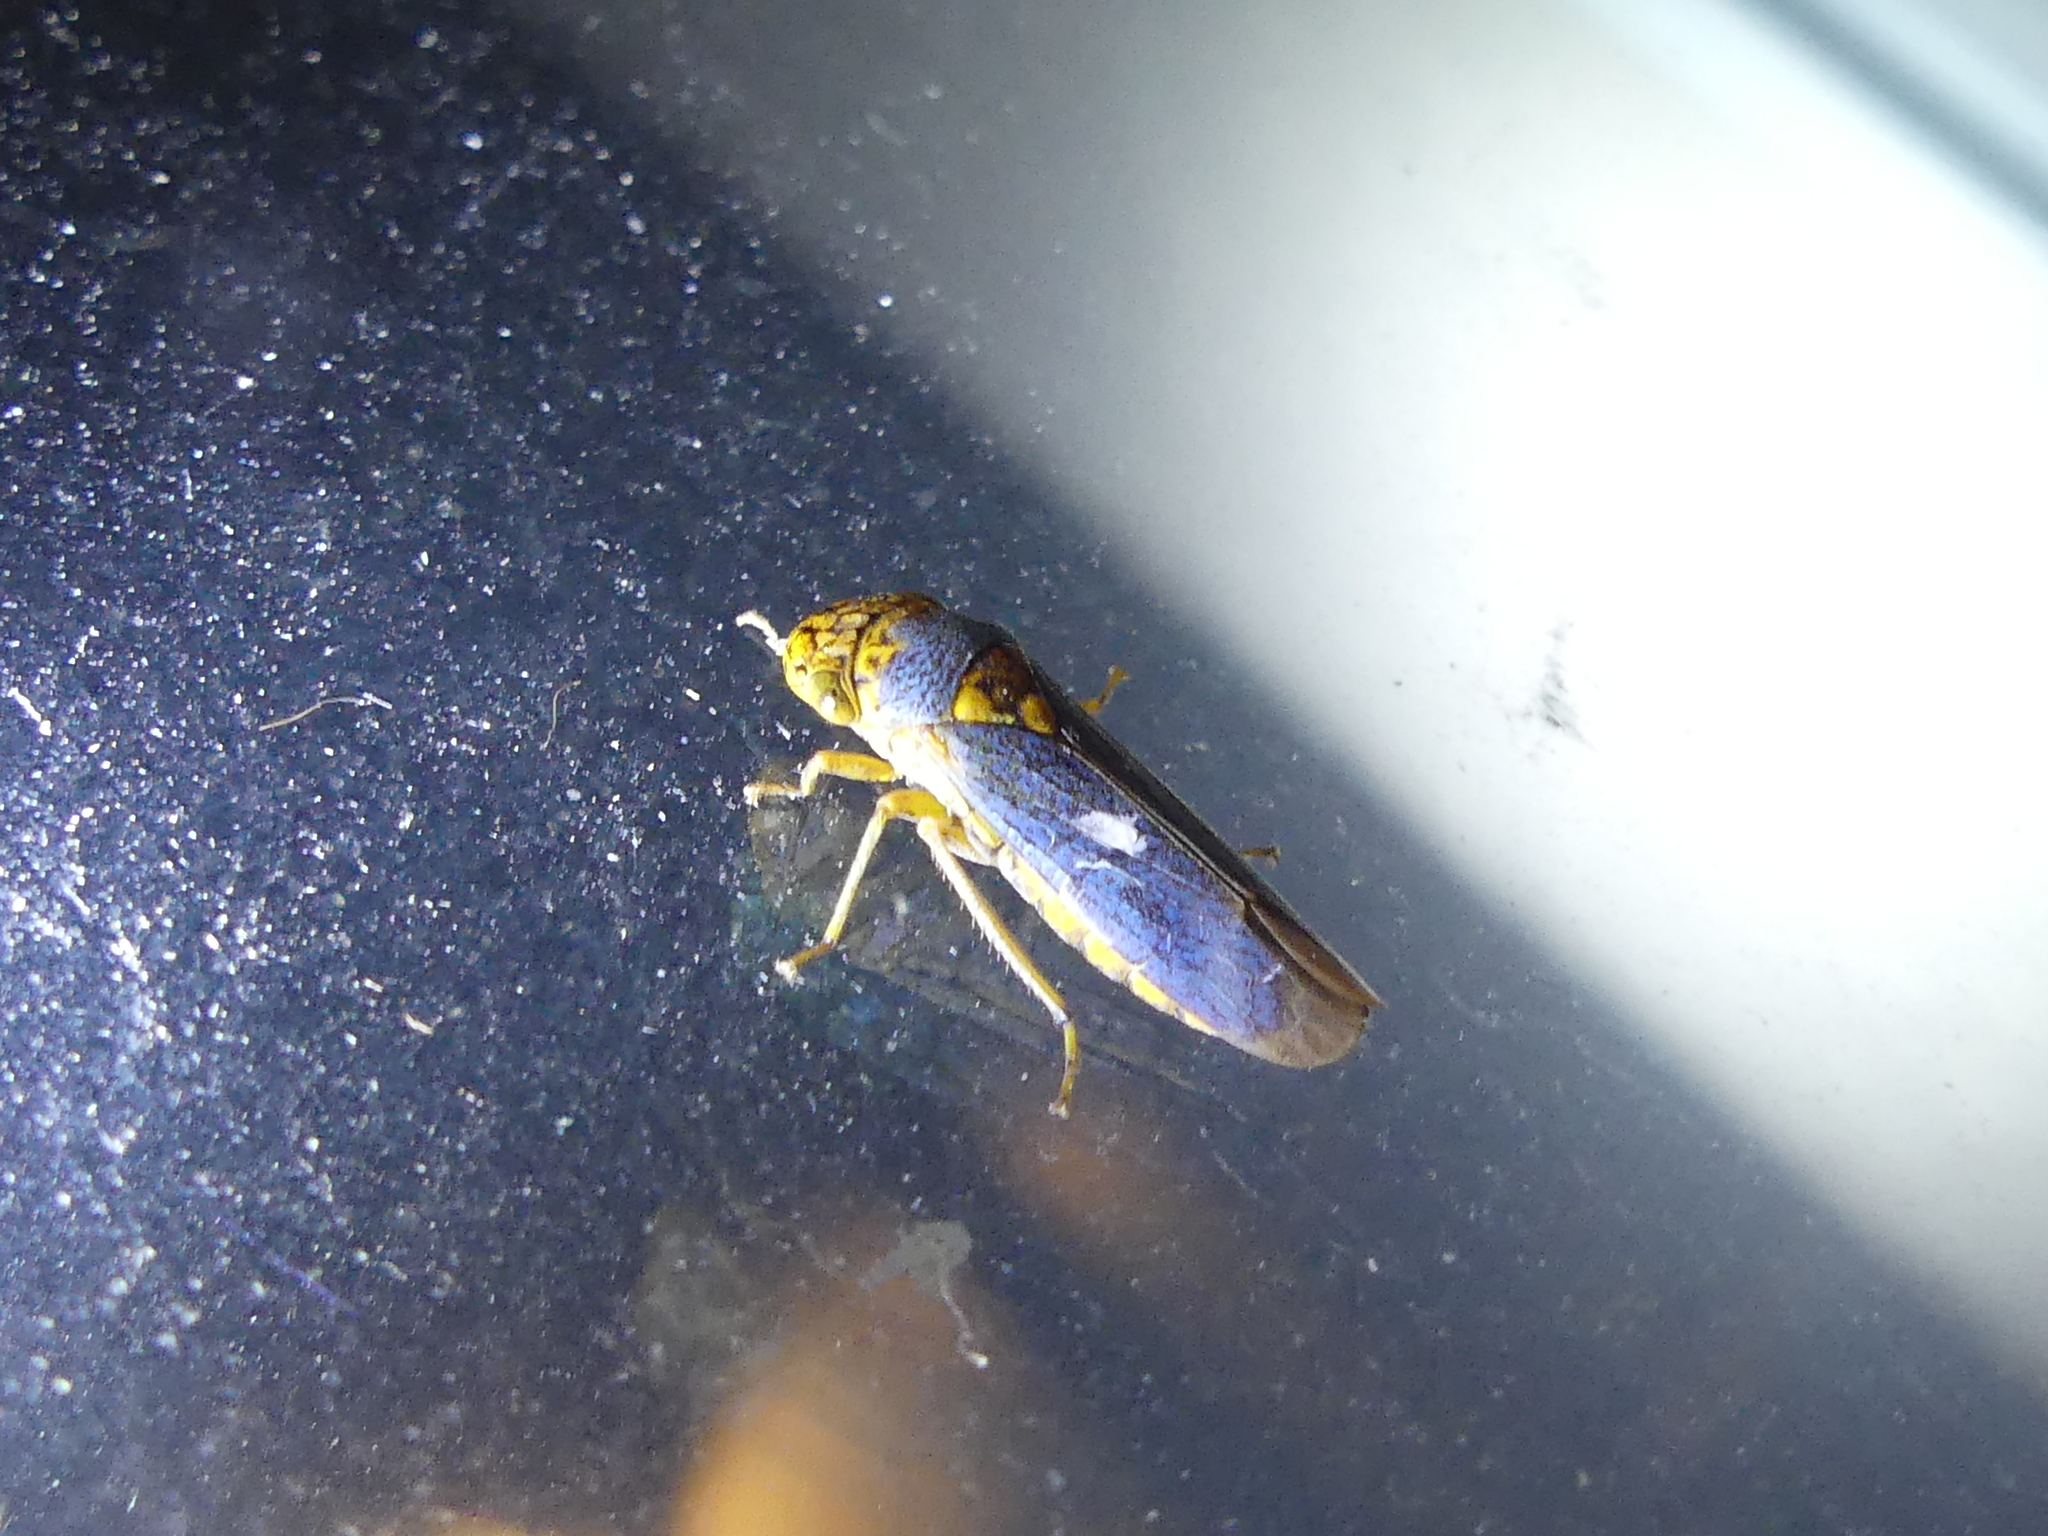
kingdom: Animalia
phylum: Arthropoda
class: Insecta
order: Hemiptera
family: Cicadellidae
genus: Oncometopia
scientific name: Oncometopia orbona
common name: Broad-headed sharpshooter
